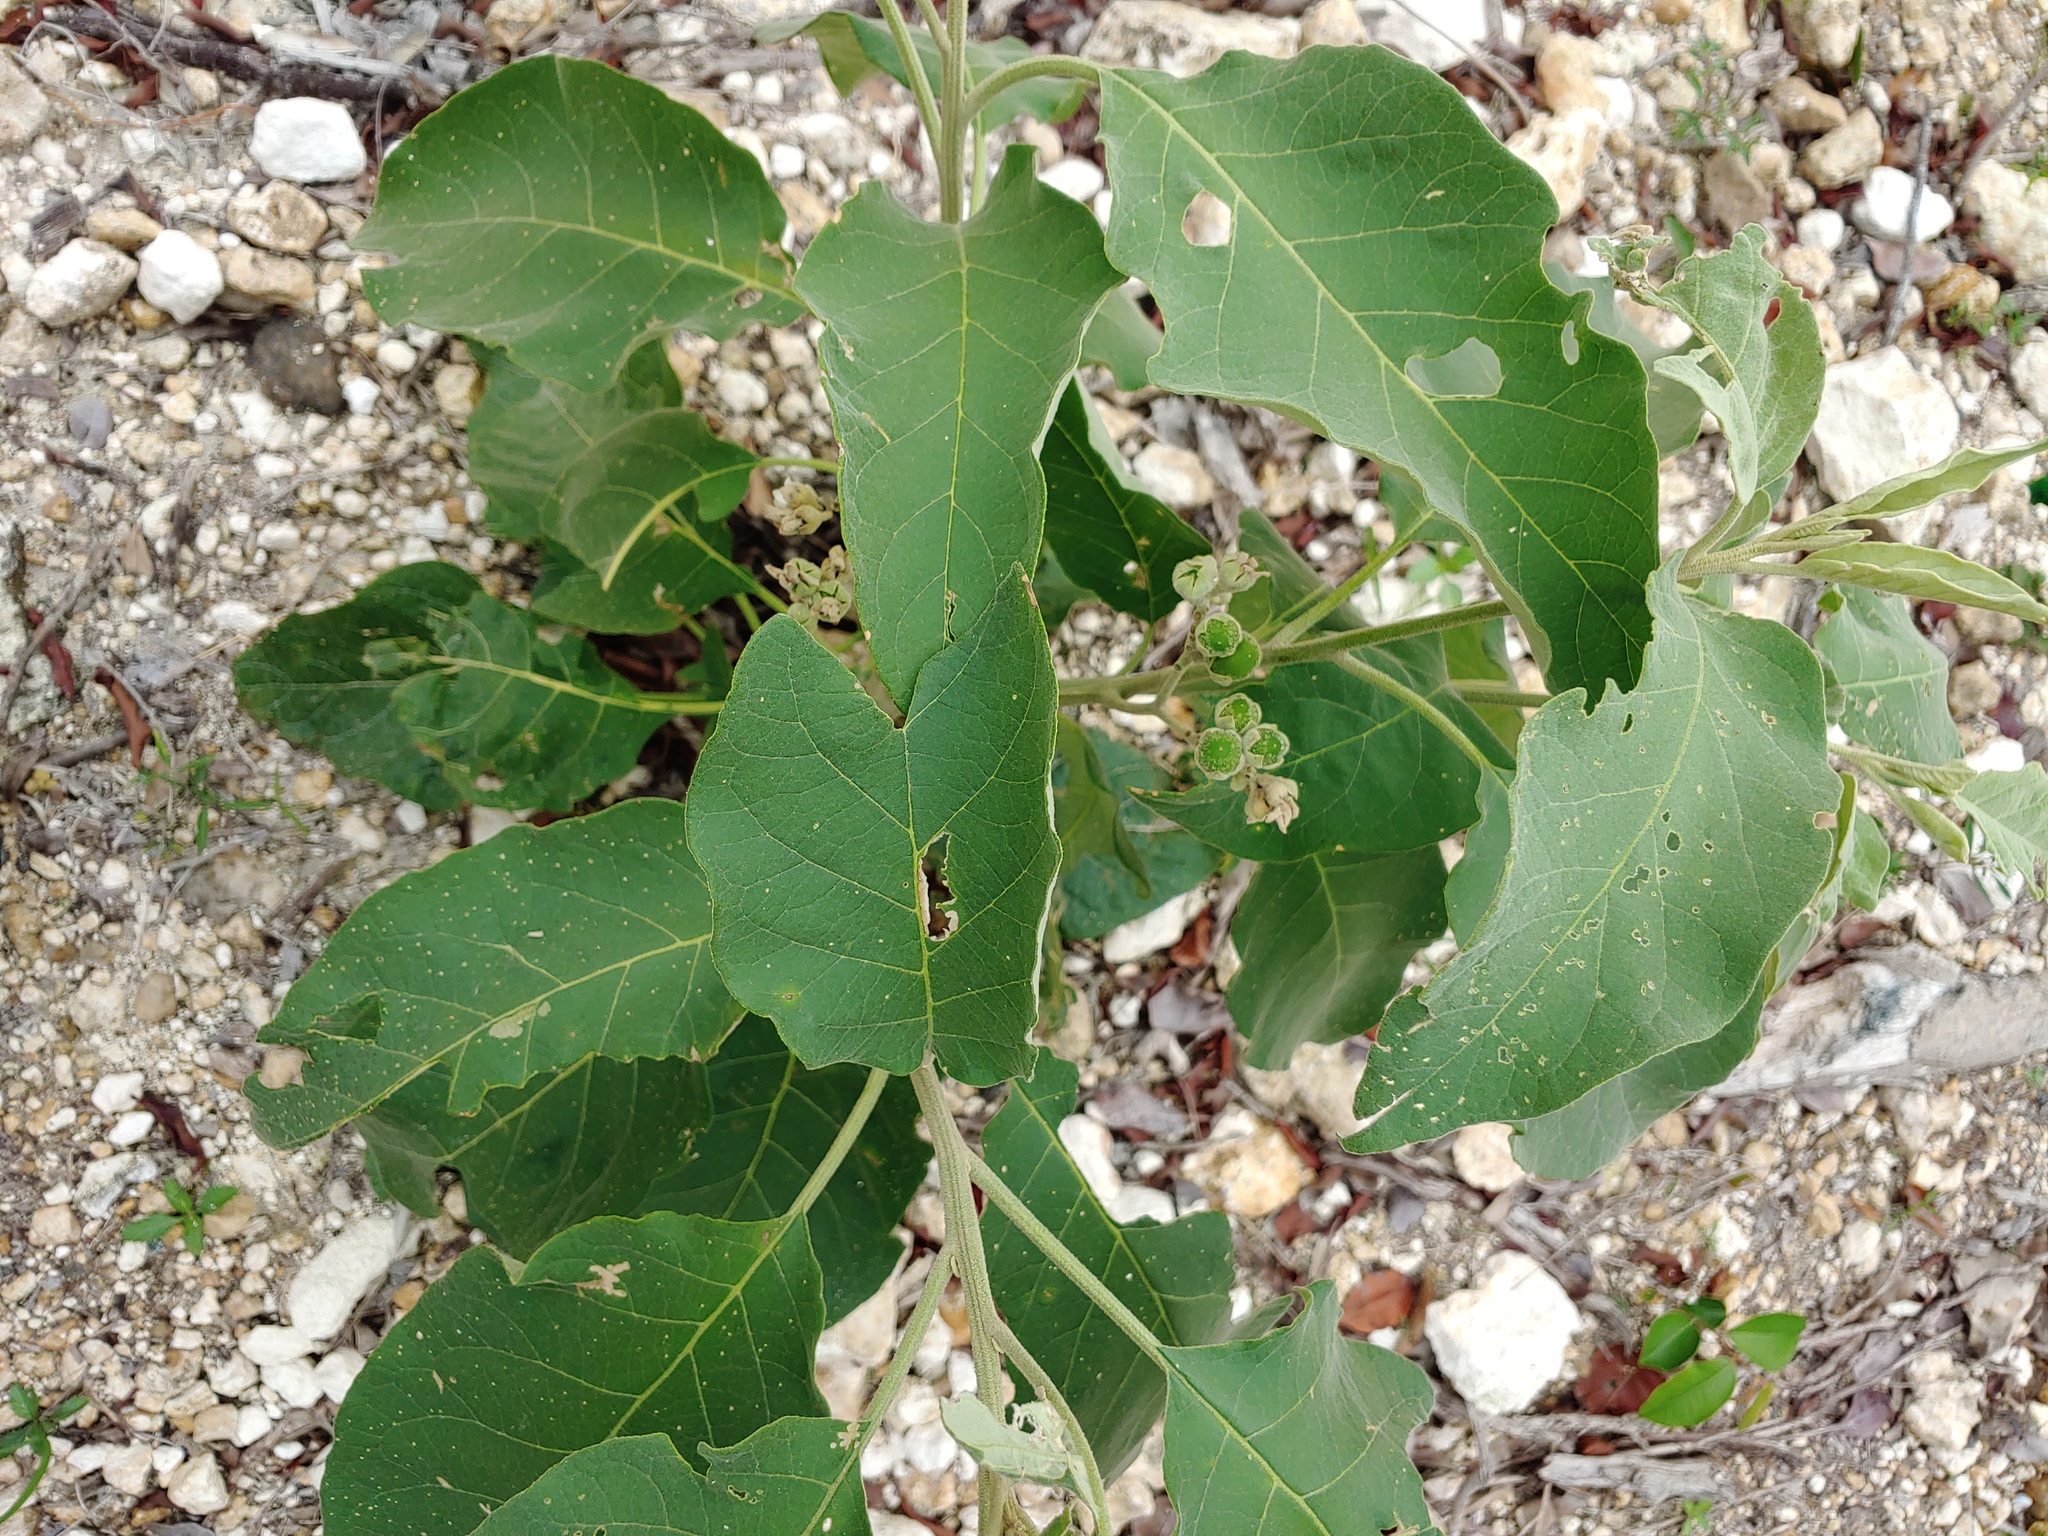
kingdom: Plantae
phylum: Tracheophyta
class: Magnoliopsida
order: Solanales
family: Solanaceae
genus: Solanum
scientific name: Solanum erianthum
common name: Tobacco-tree
